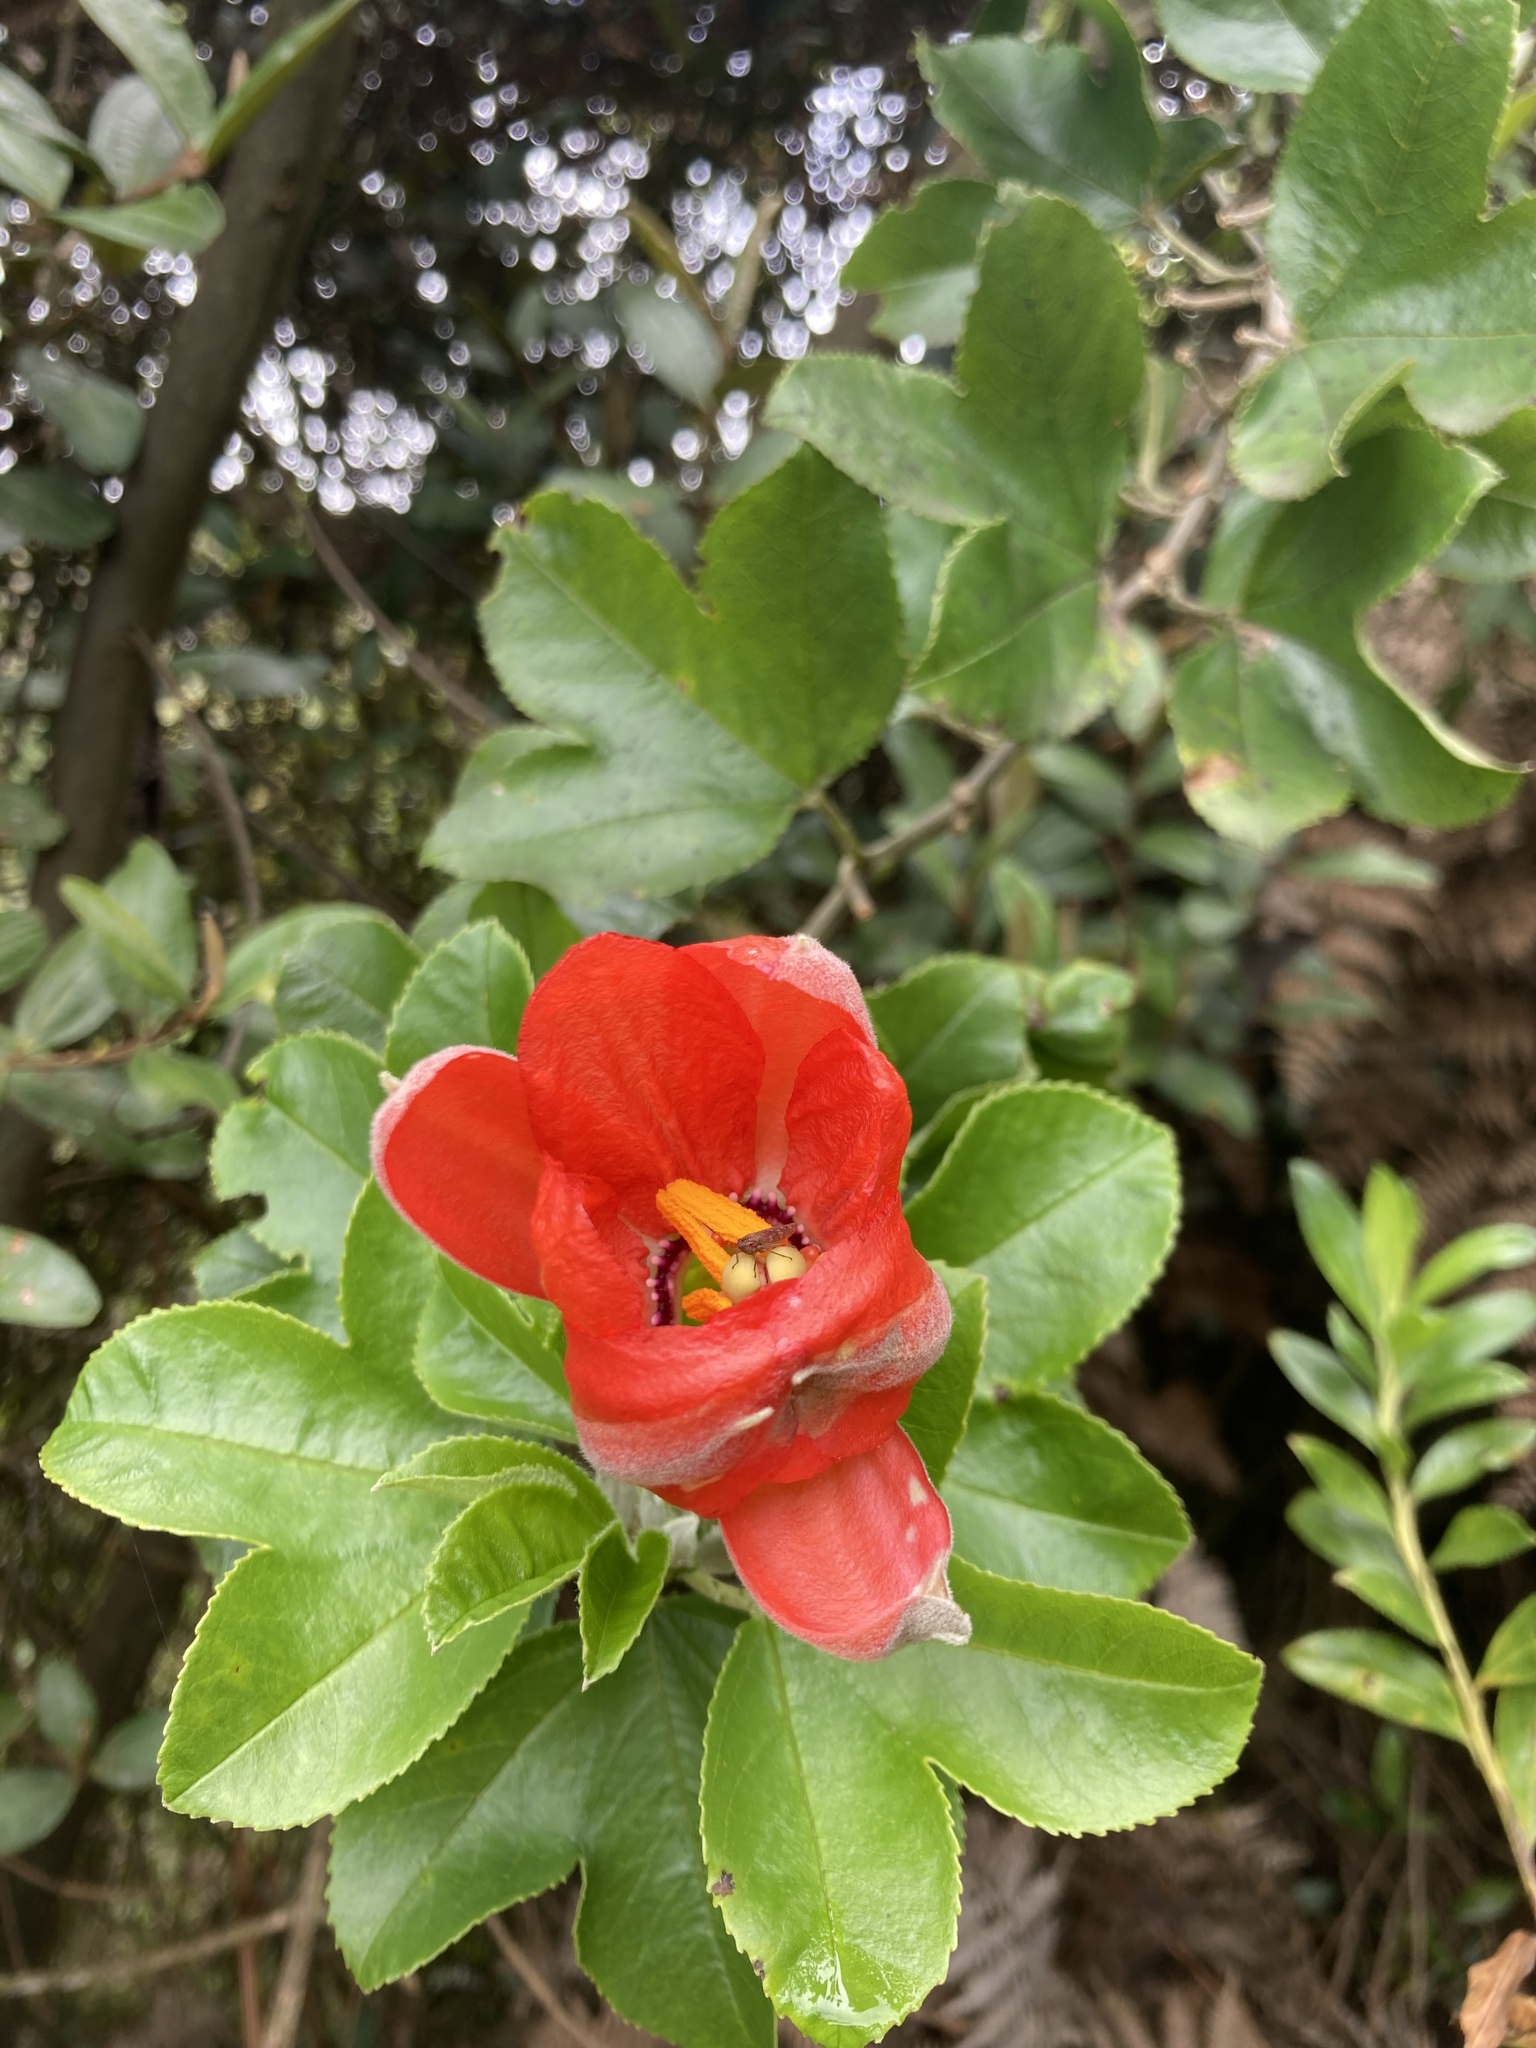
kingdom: Plantae
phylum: Tracheophyta
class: Magnoliopsida
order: Malpighiales
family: Passifloraceae
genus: Passiflora
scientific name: Passiflora mixta
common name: Passion flower
